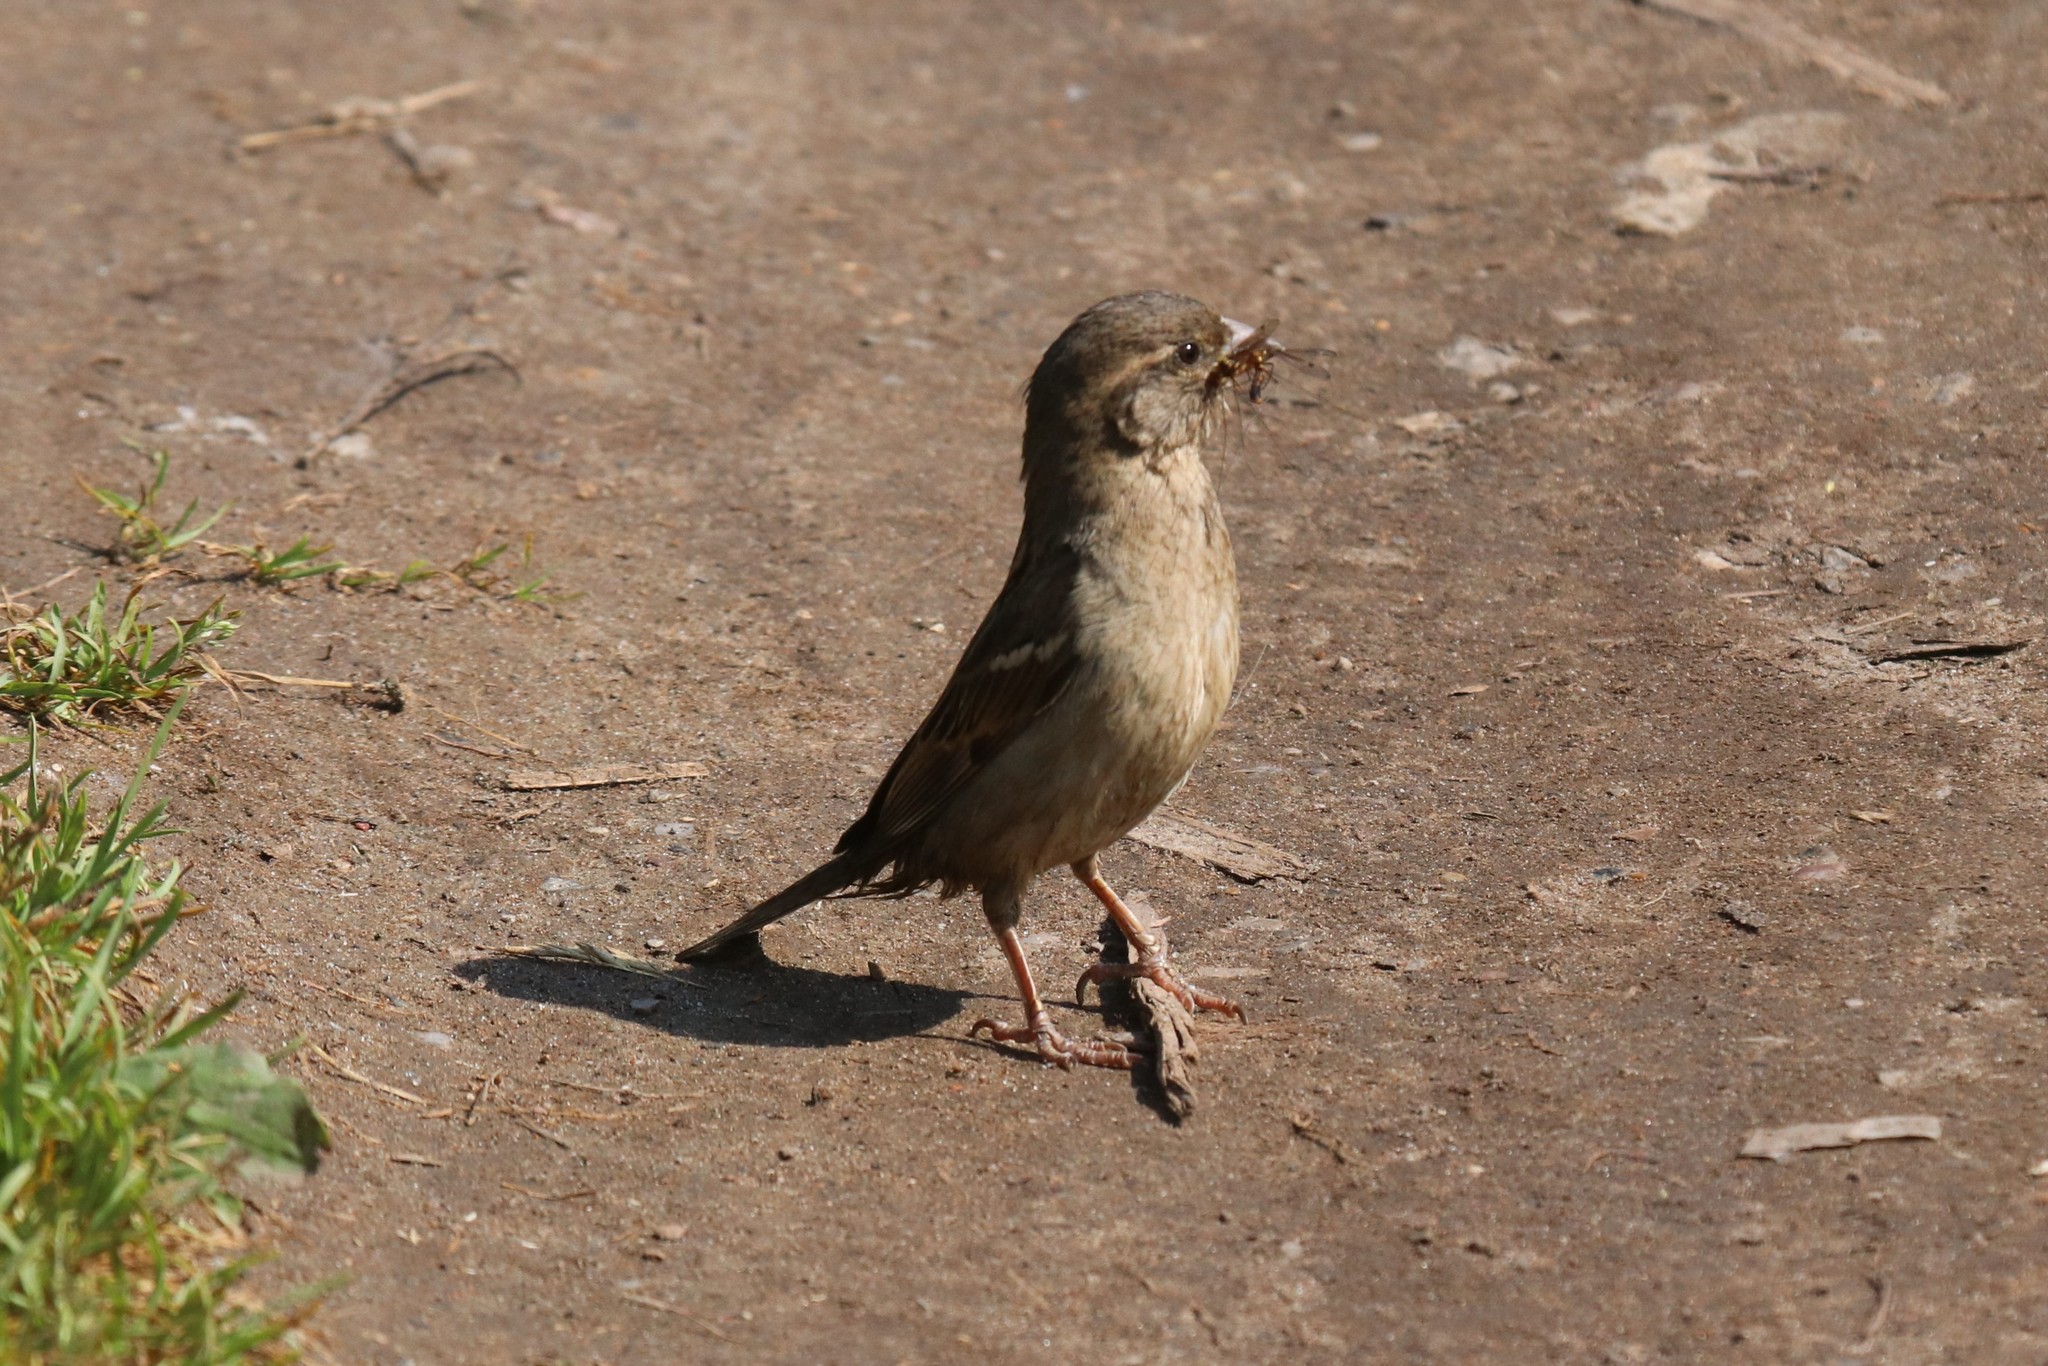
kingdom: Animalia
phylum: Chordata
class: Aves
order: Passeriformes
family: Passeridae
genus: Passer
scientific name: Passer domesticus
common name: House sparrow
